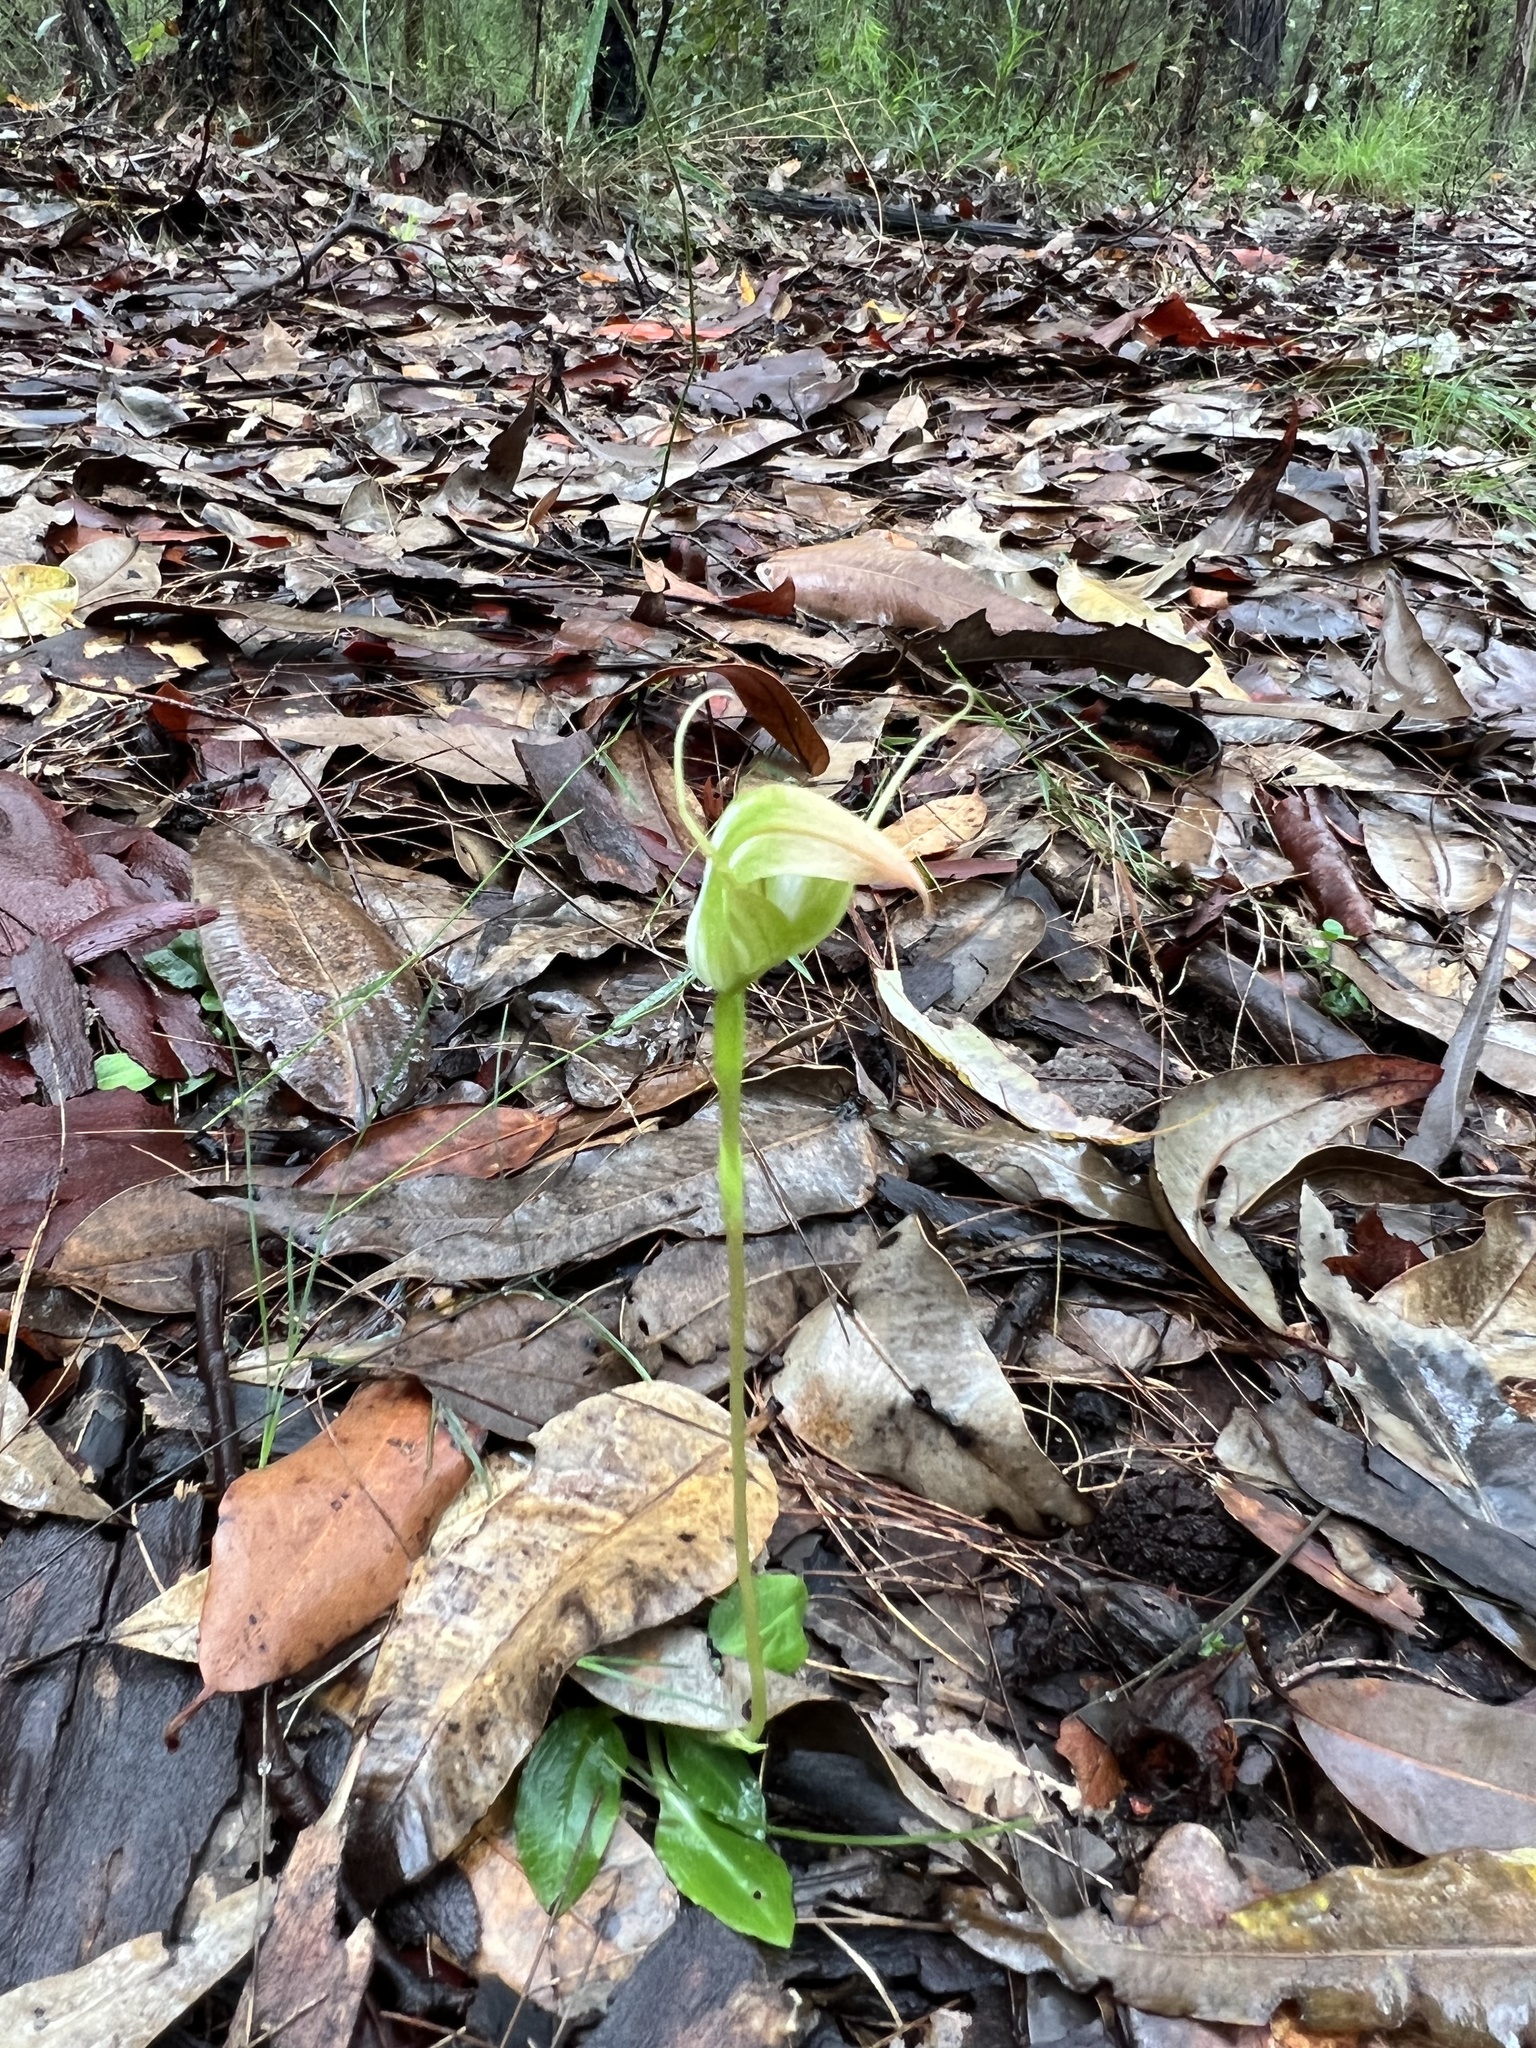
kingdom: Plantae
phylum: Tracheophyta
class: Liliopsida
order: Asparagales
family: Orchidaceae
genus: Pterostylis
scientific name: Pterostylis acuminata
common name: Pointed greenhood
